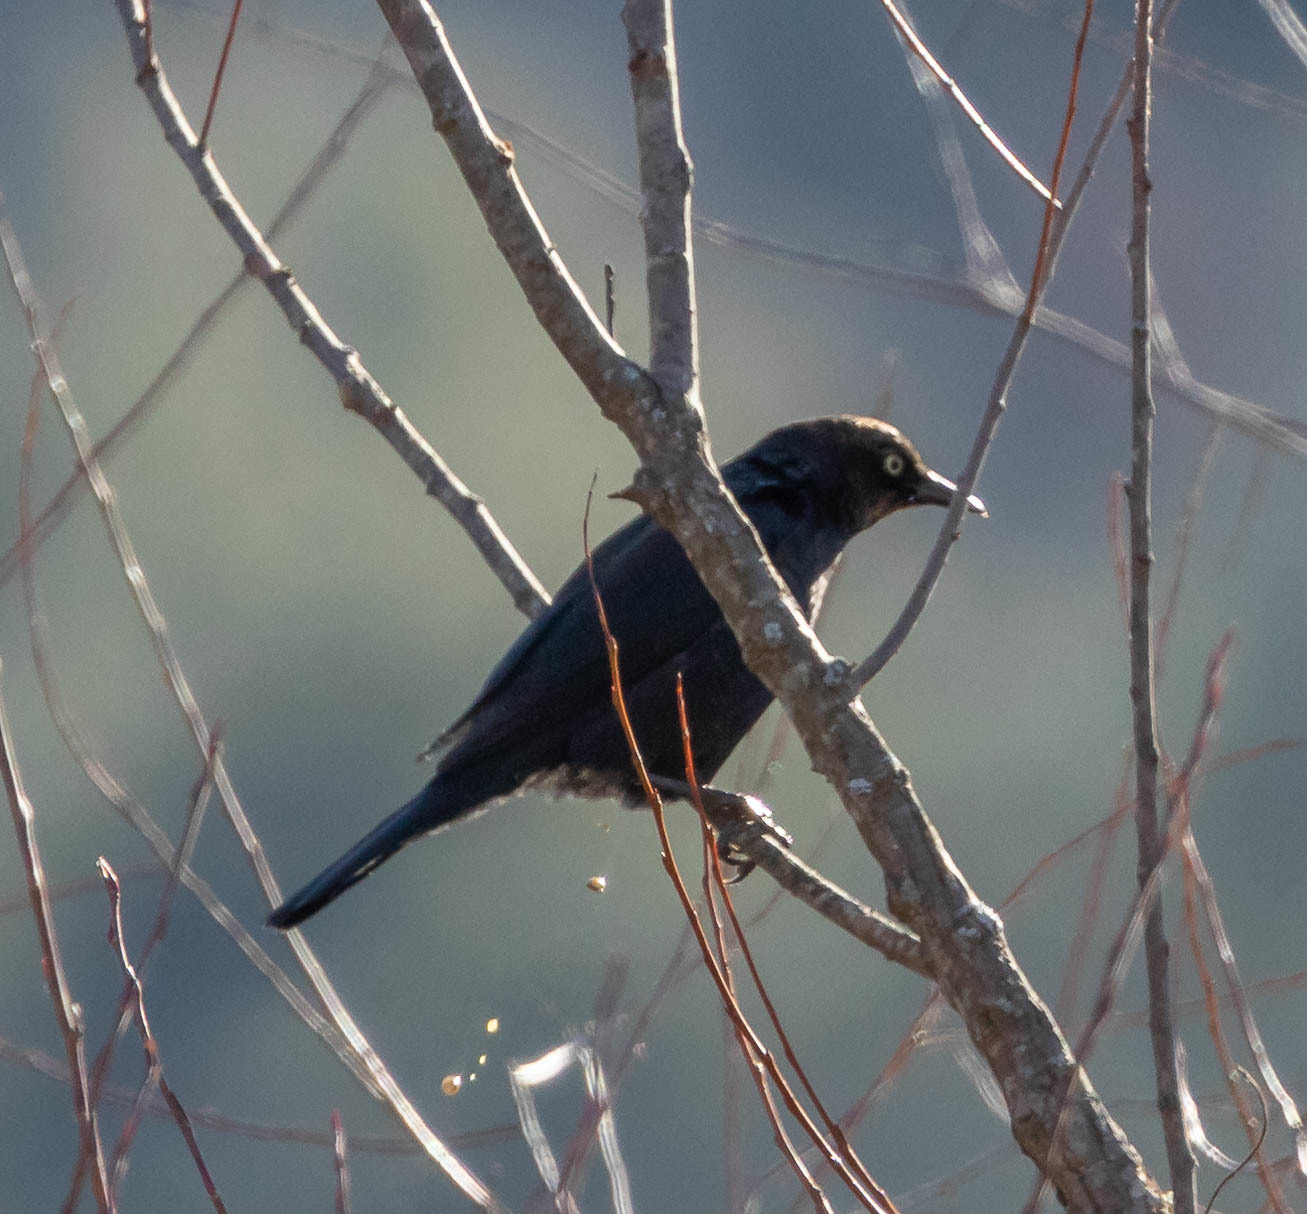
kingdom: Animalia
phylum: Chordata
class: Aves
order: Passeriformes
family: Icteridae
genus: Euphagus
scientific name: Euphagus carolinus
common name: Rusty blackbird
